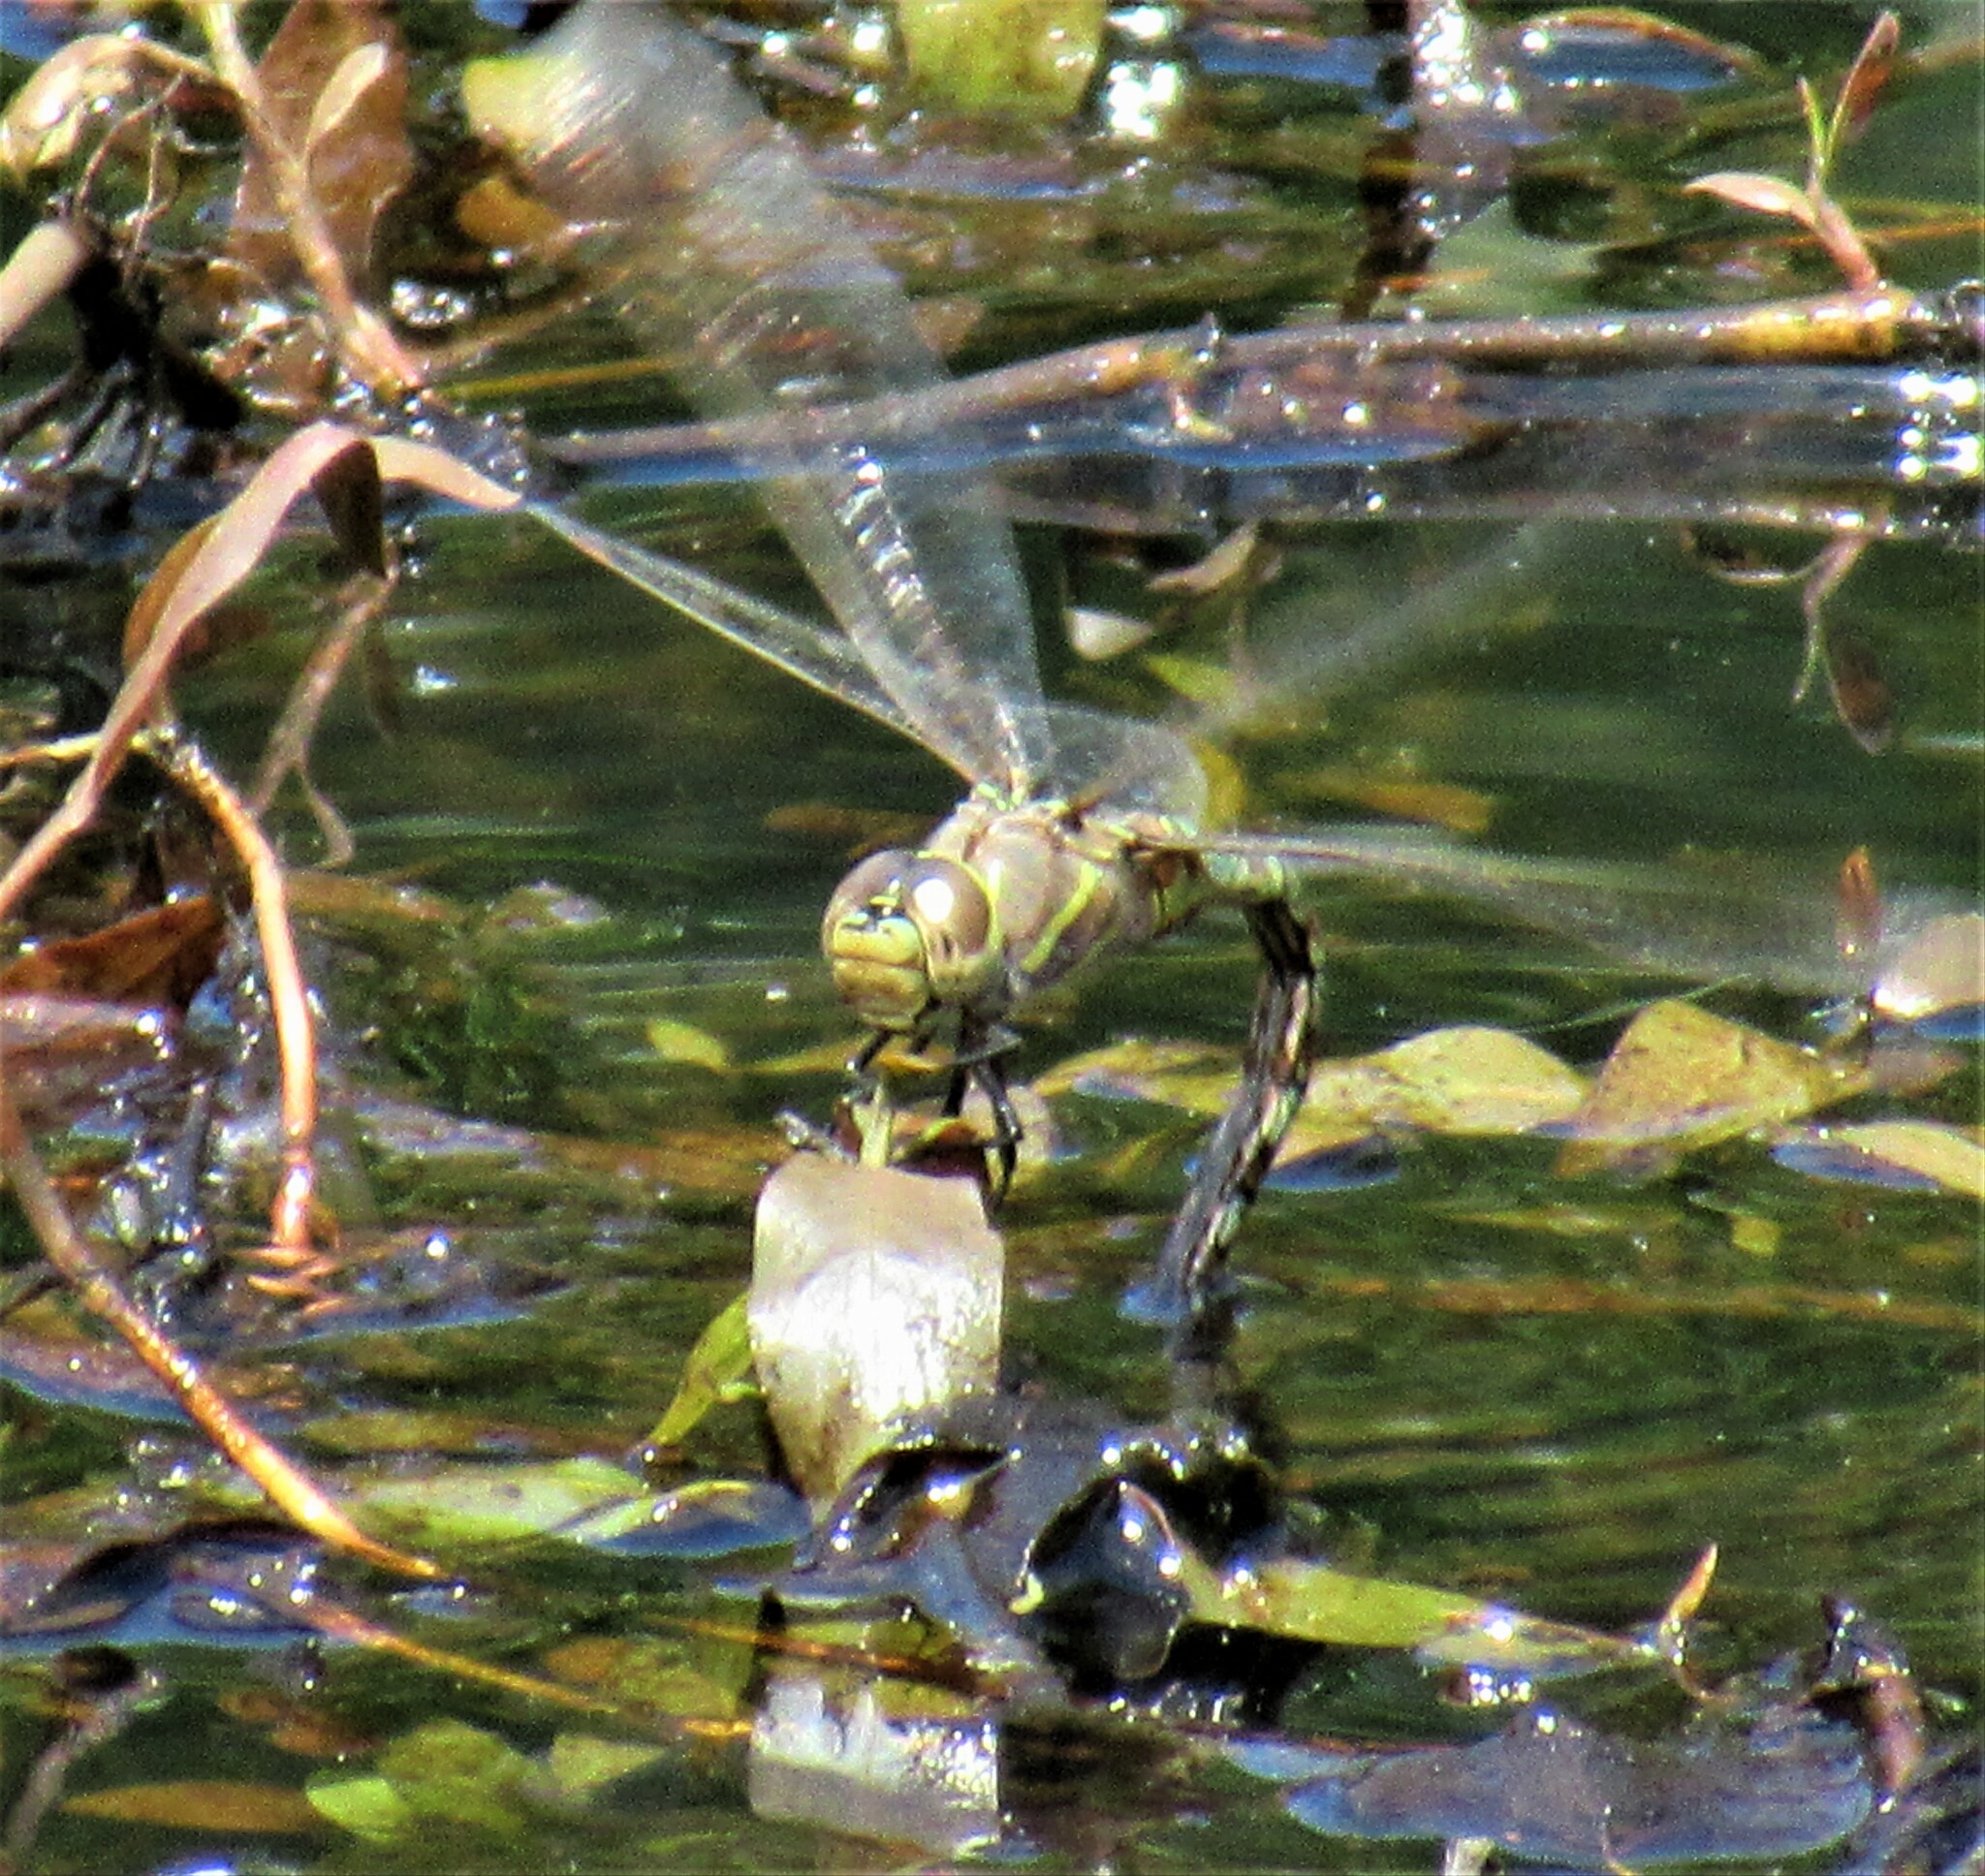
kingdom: Animalia
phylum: Arthropoda
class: Insecta
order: Odonata
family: Aeshnidae
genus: Rhionaeschna
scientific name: Rhionaeschna multicolor
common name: Blue-eyed darner
